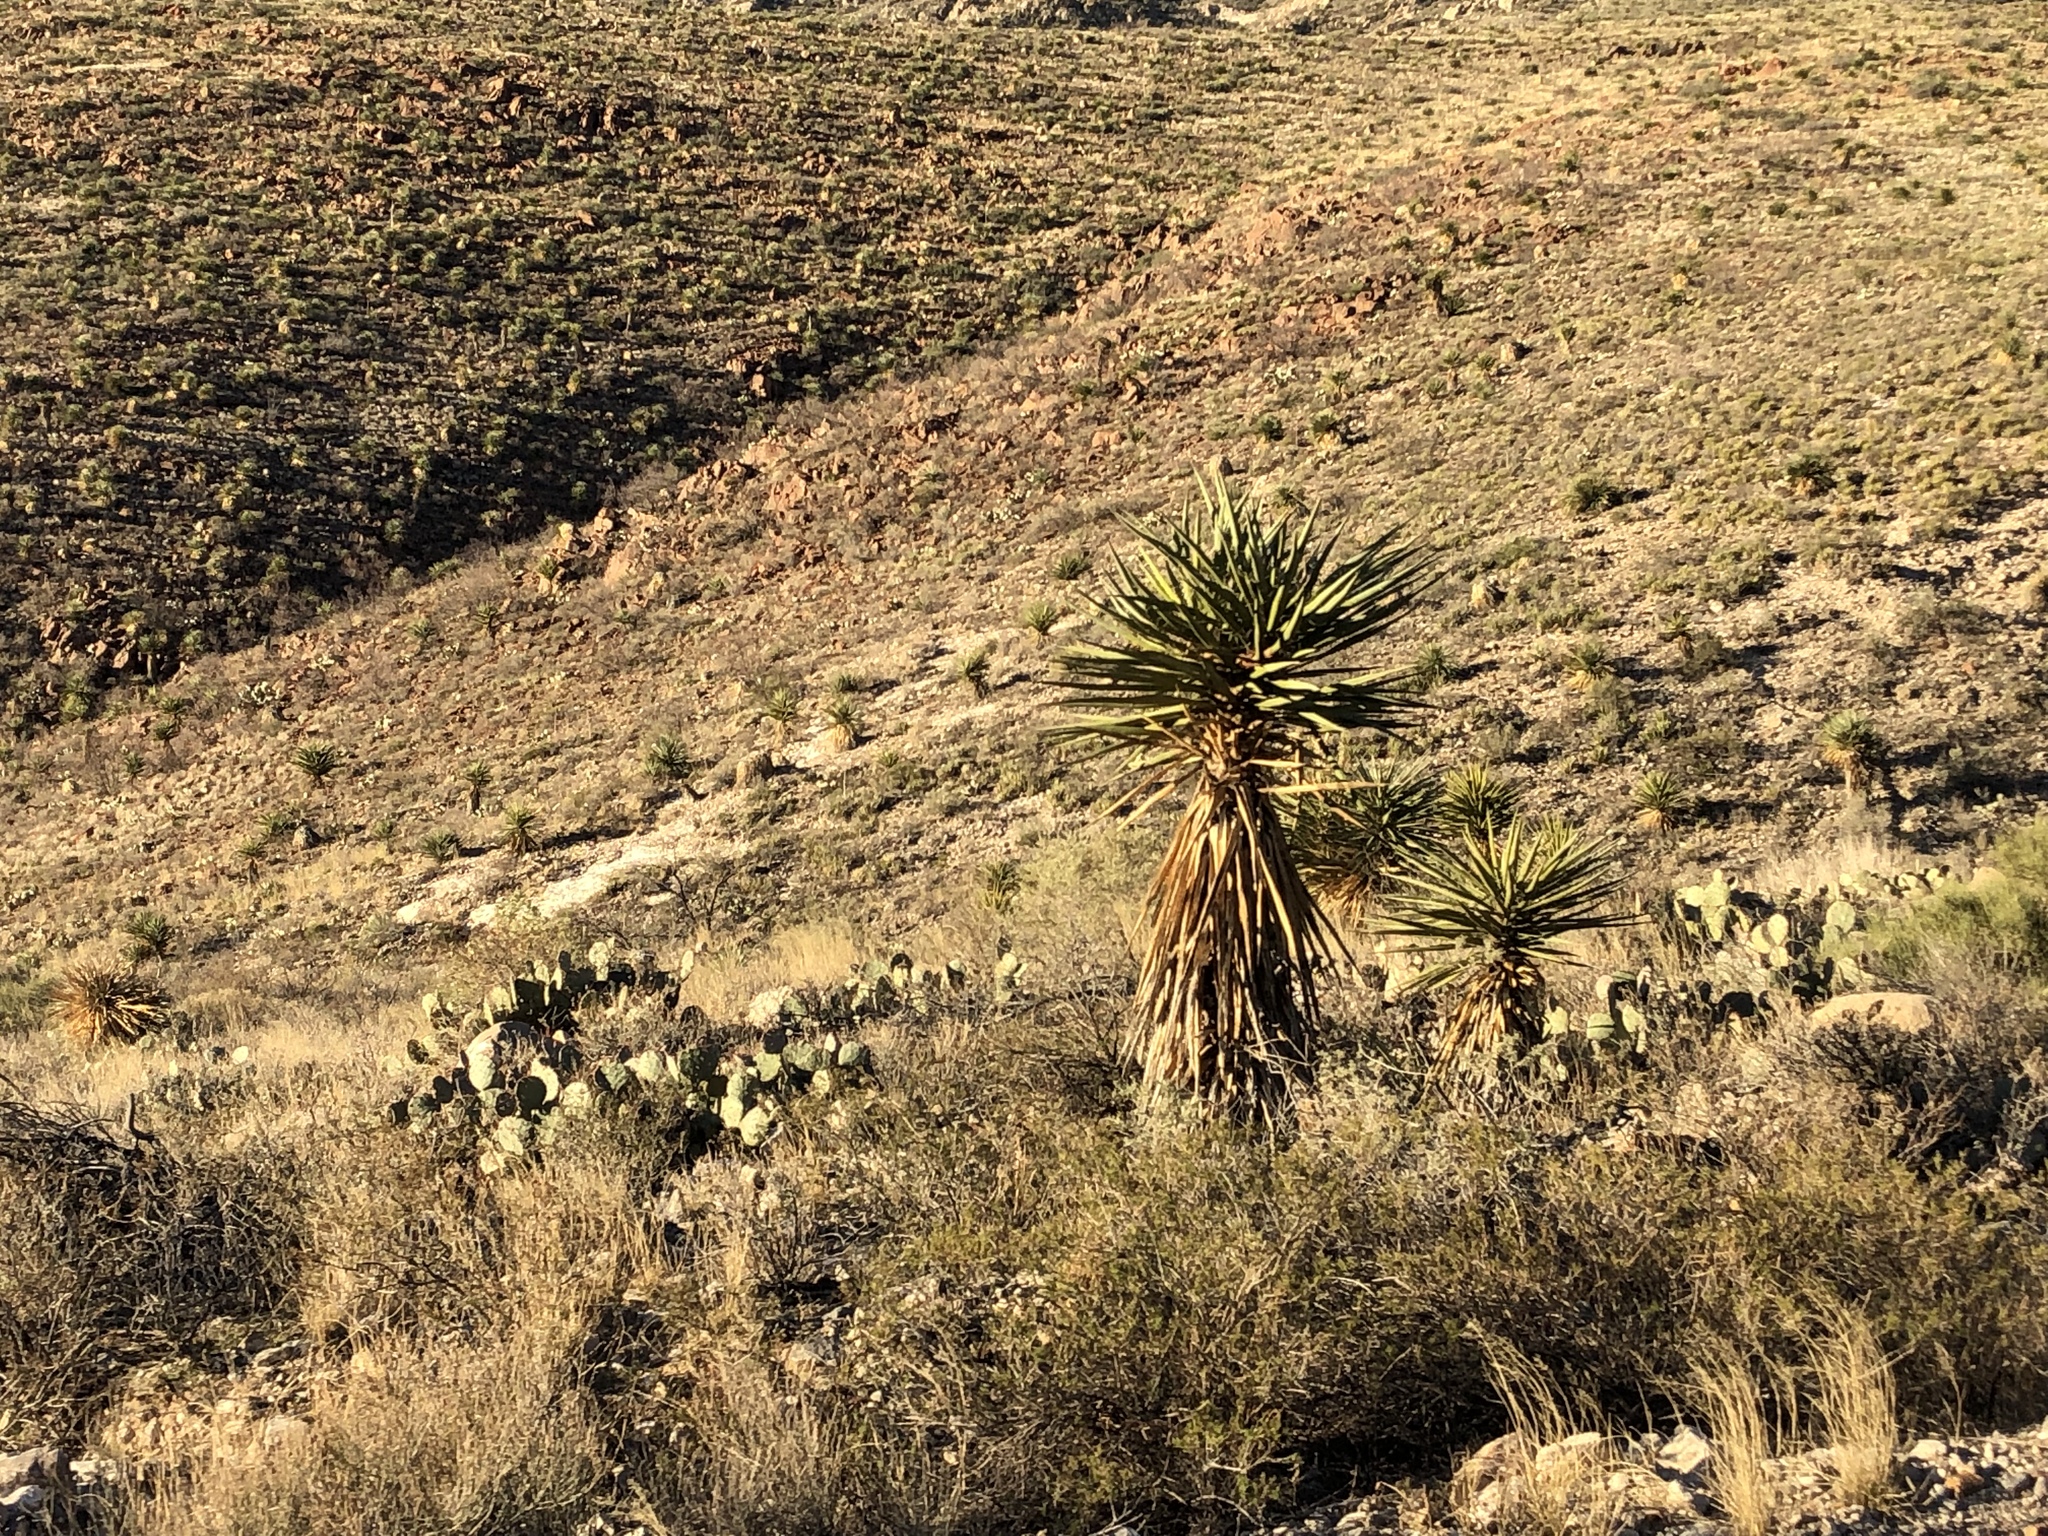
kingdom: Plantae
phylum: Tracheophyta
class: Liliopsida
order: Asparagales
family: Asparagaceae
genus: Yucca
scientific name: Yucca treculiana
